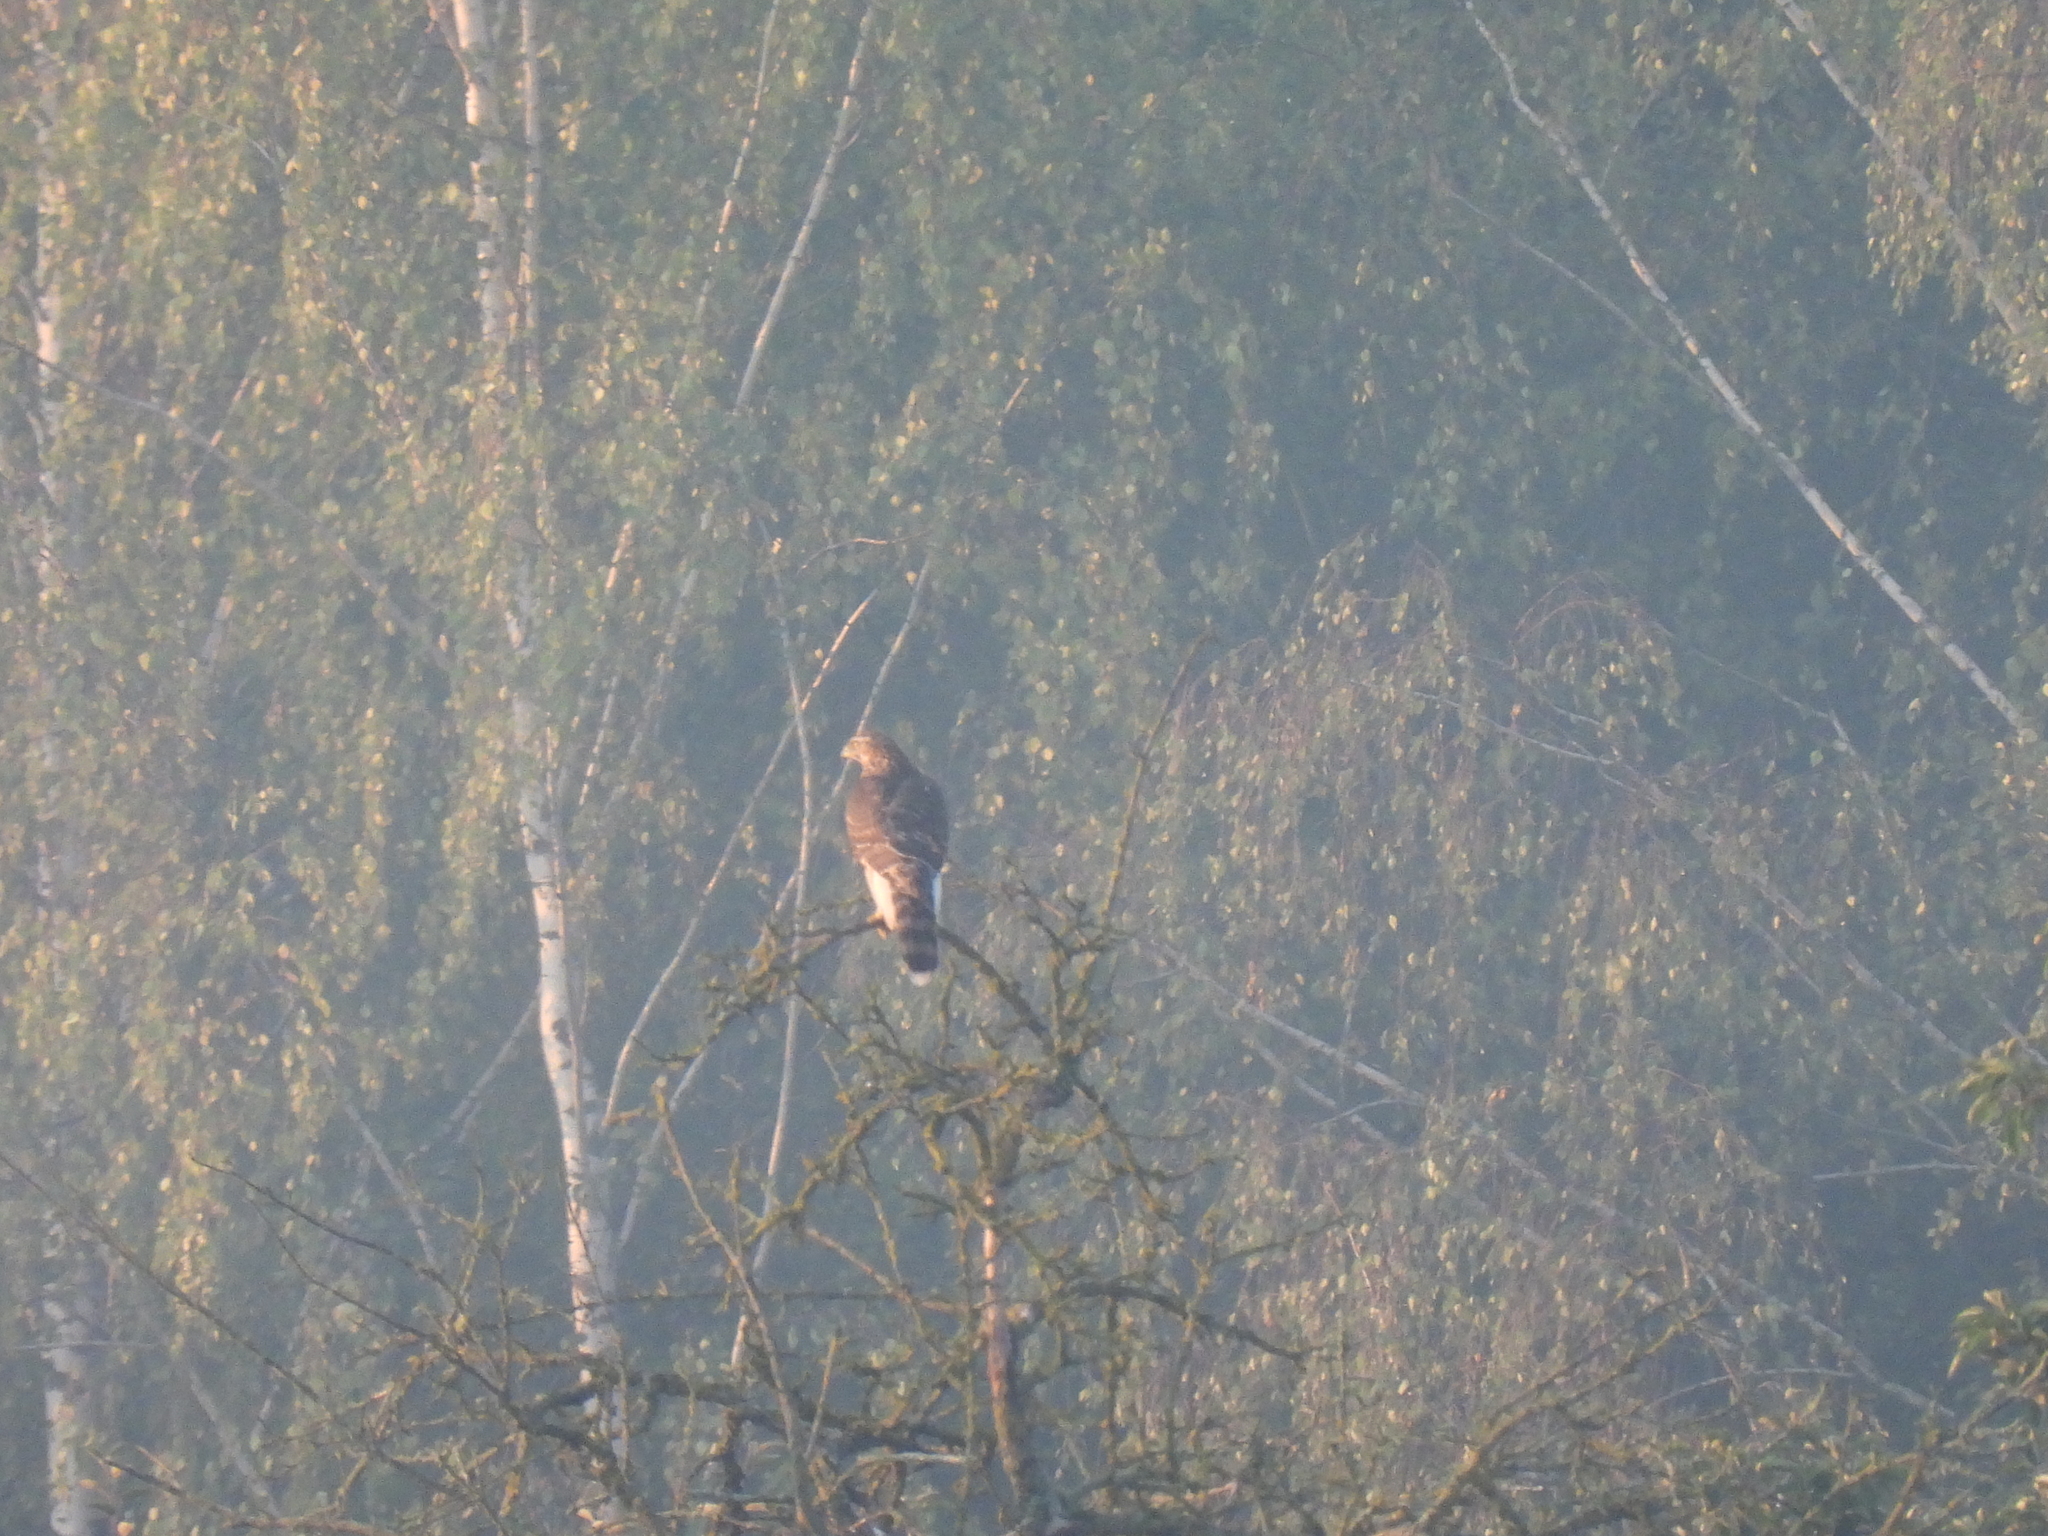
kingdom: Animalia
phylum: Chordata
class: Aves
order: Accipitriformes
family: Accipitridae
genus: Accipiter
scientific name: Accipiter gentilis
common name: Northern goshawk
